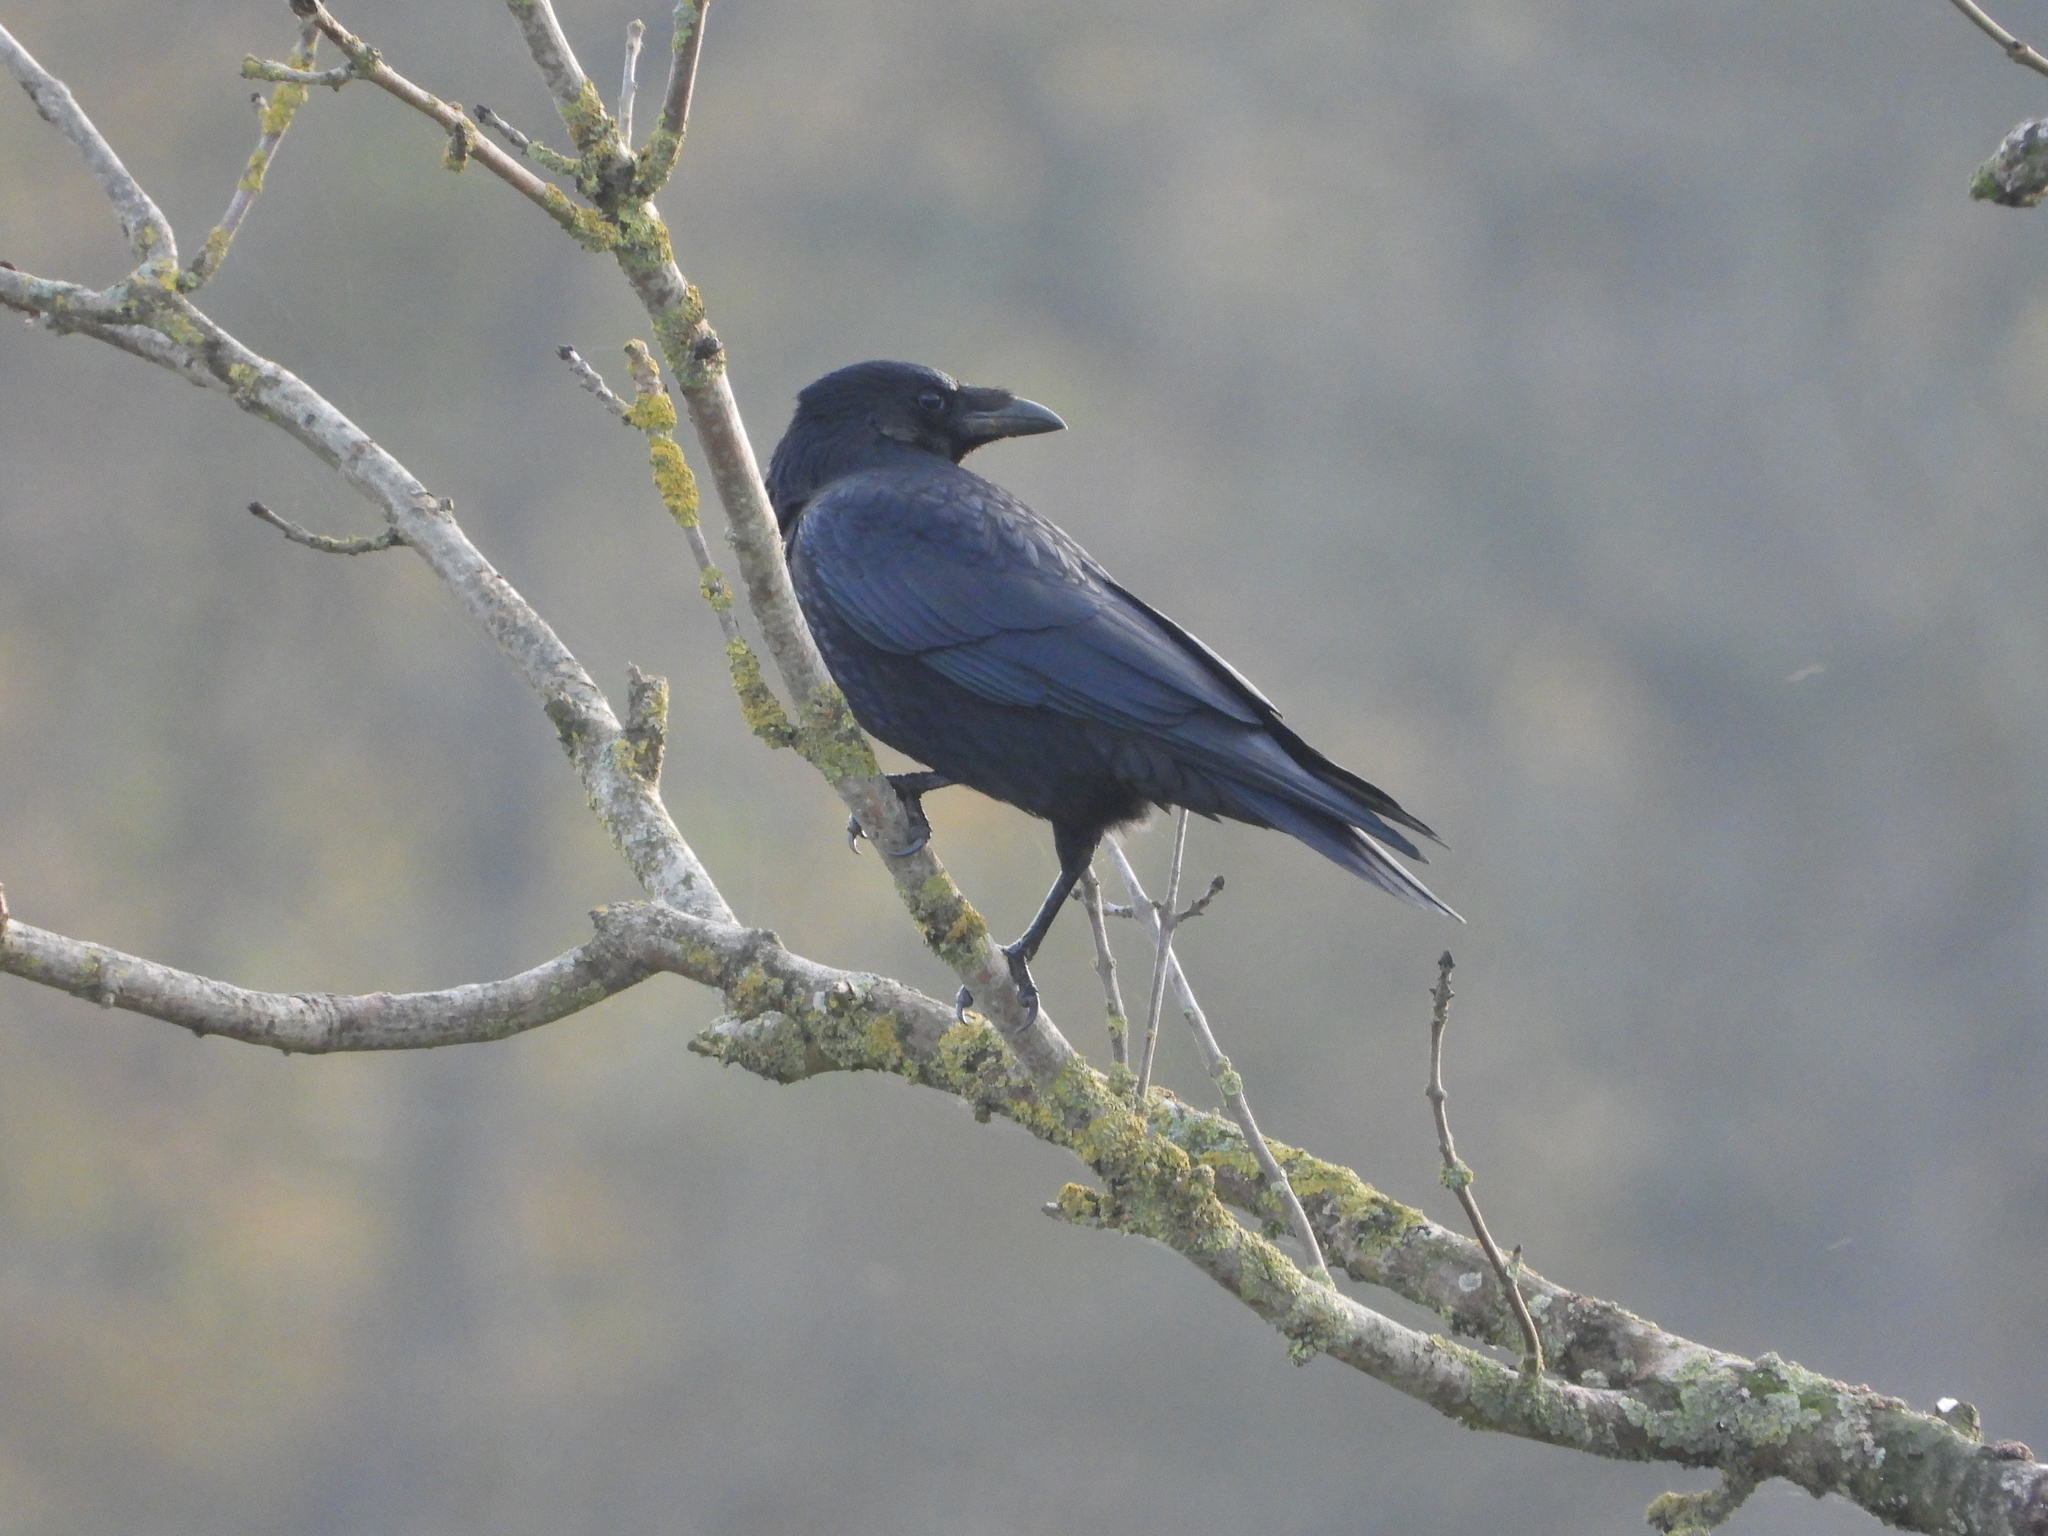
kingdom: Animalia
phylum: Chordata
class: Aves
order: Passeriformes
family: Corvidae
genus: Corvus
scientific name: Corvus corone
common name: Carrion crow
